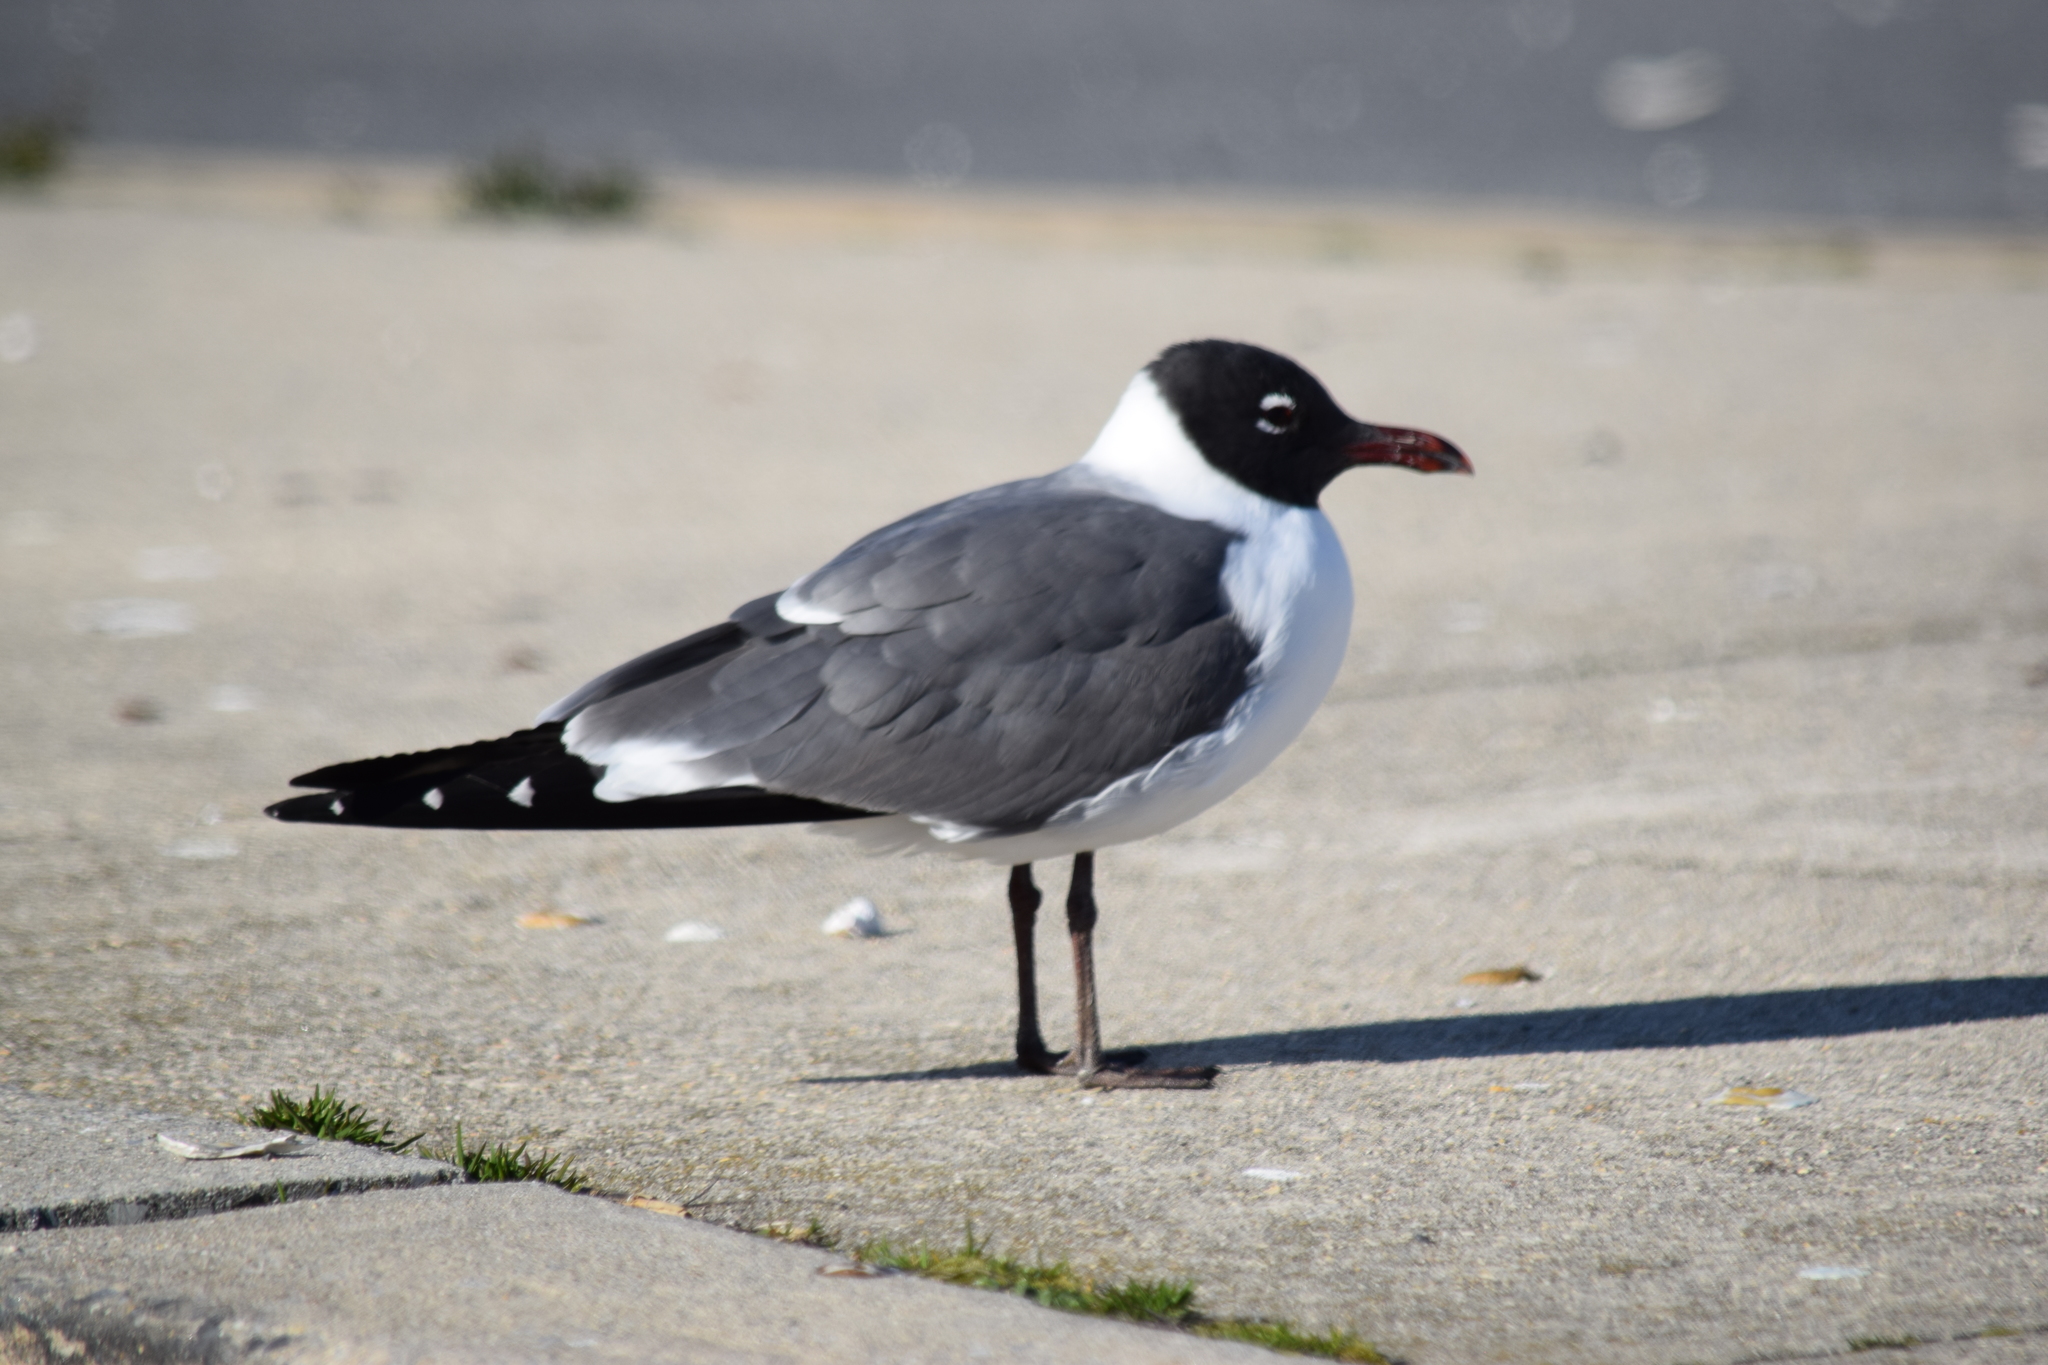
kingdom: Animalia
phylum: Chordata
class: Aves
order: Charadriiformes
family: Laridae
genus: Leucophaeus
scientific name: Leucophaeus atricilla
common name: Laughing gull
